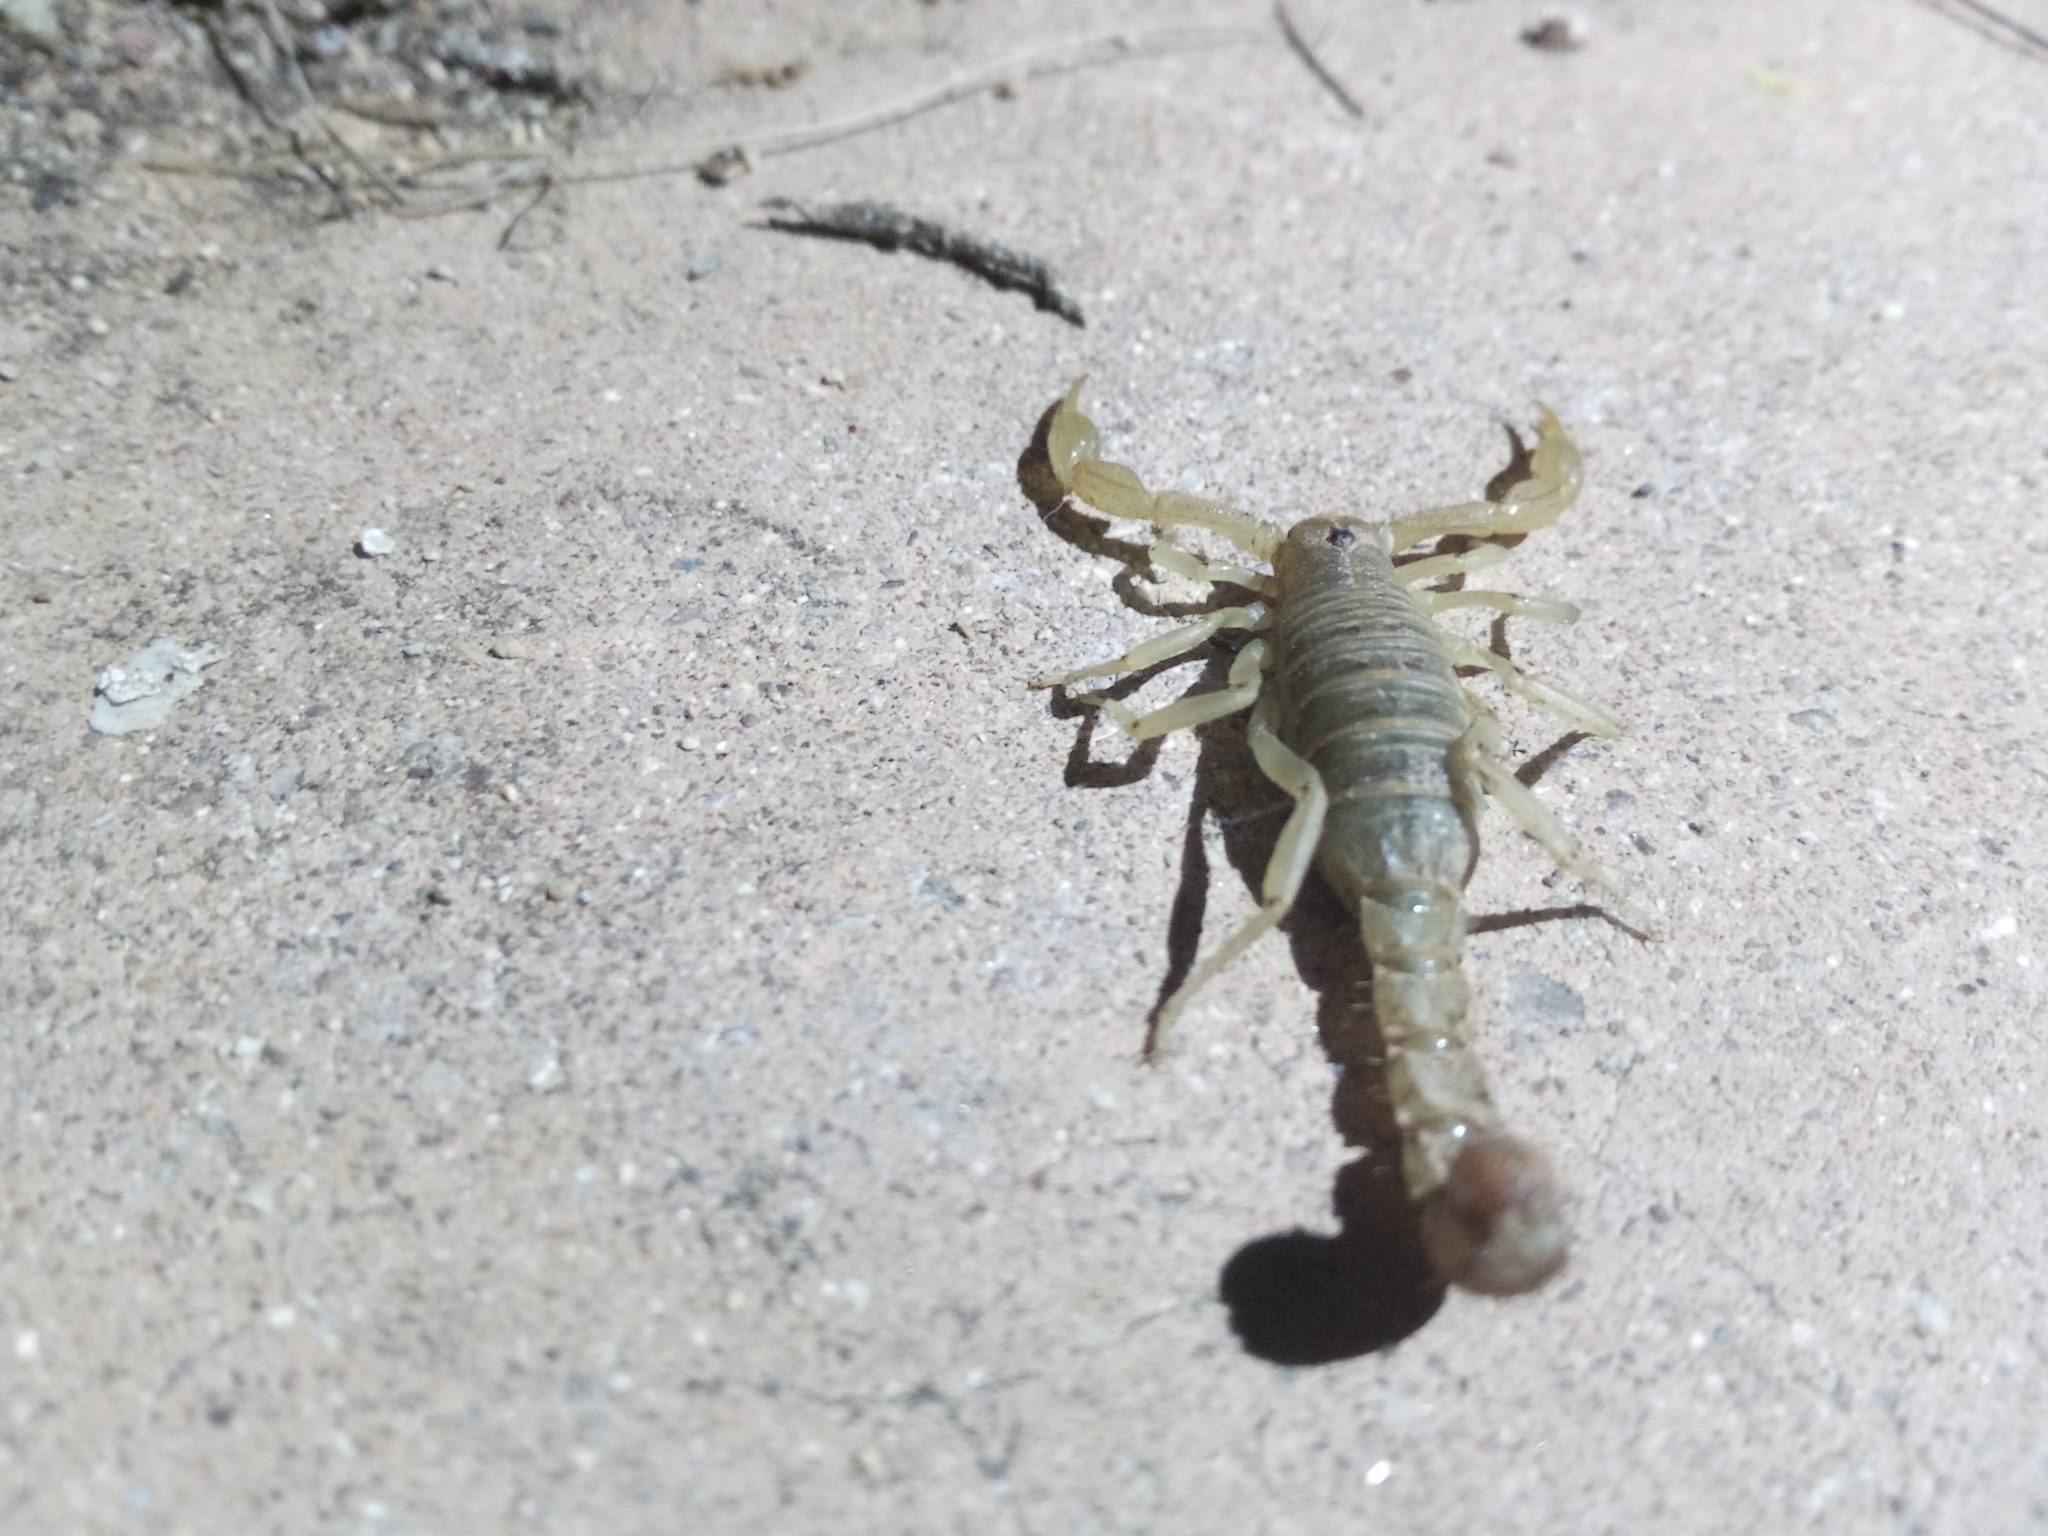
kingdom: Animalia
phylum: Arthropoda
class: Arachnida
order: Scorpiones
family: Vaejovidae
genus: Paravaejovis
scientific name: Paravaejovis spinigerus
